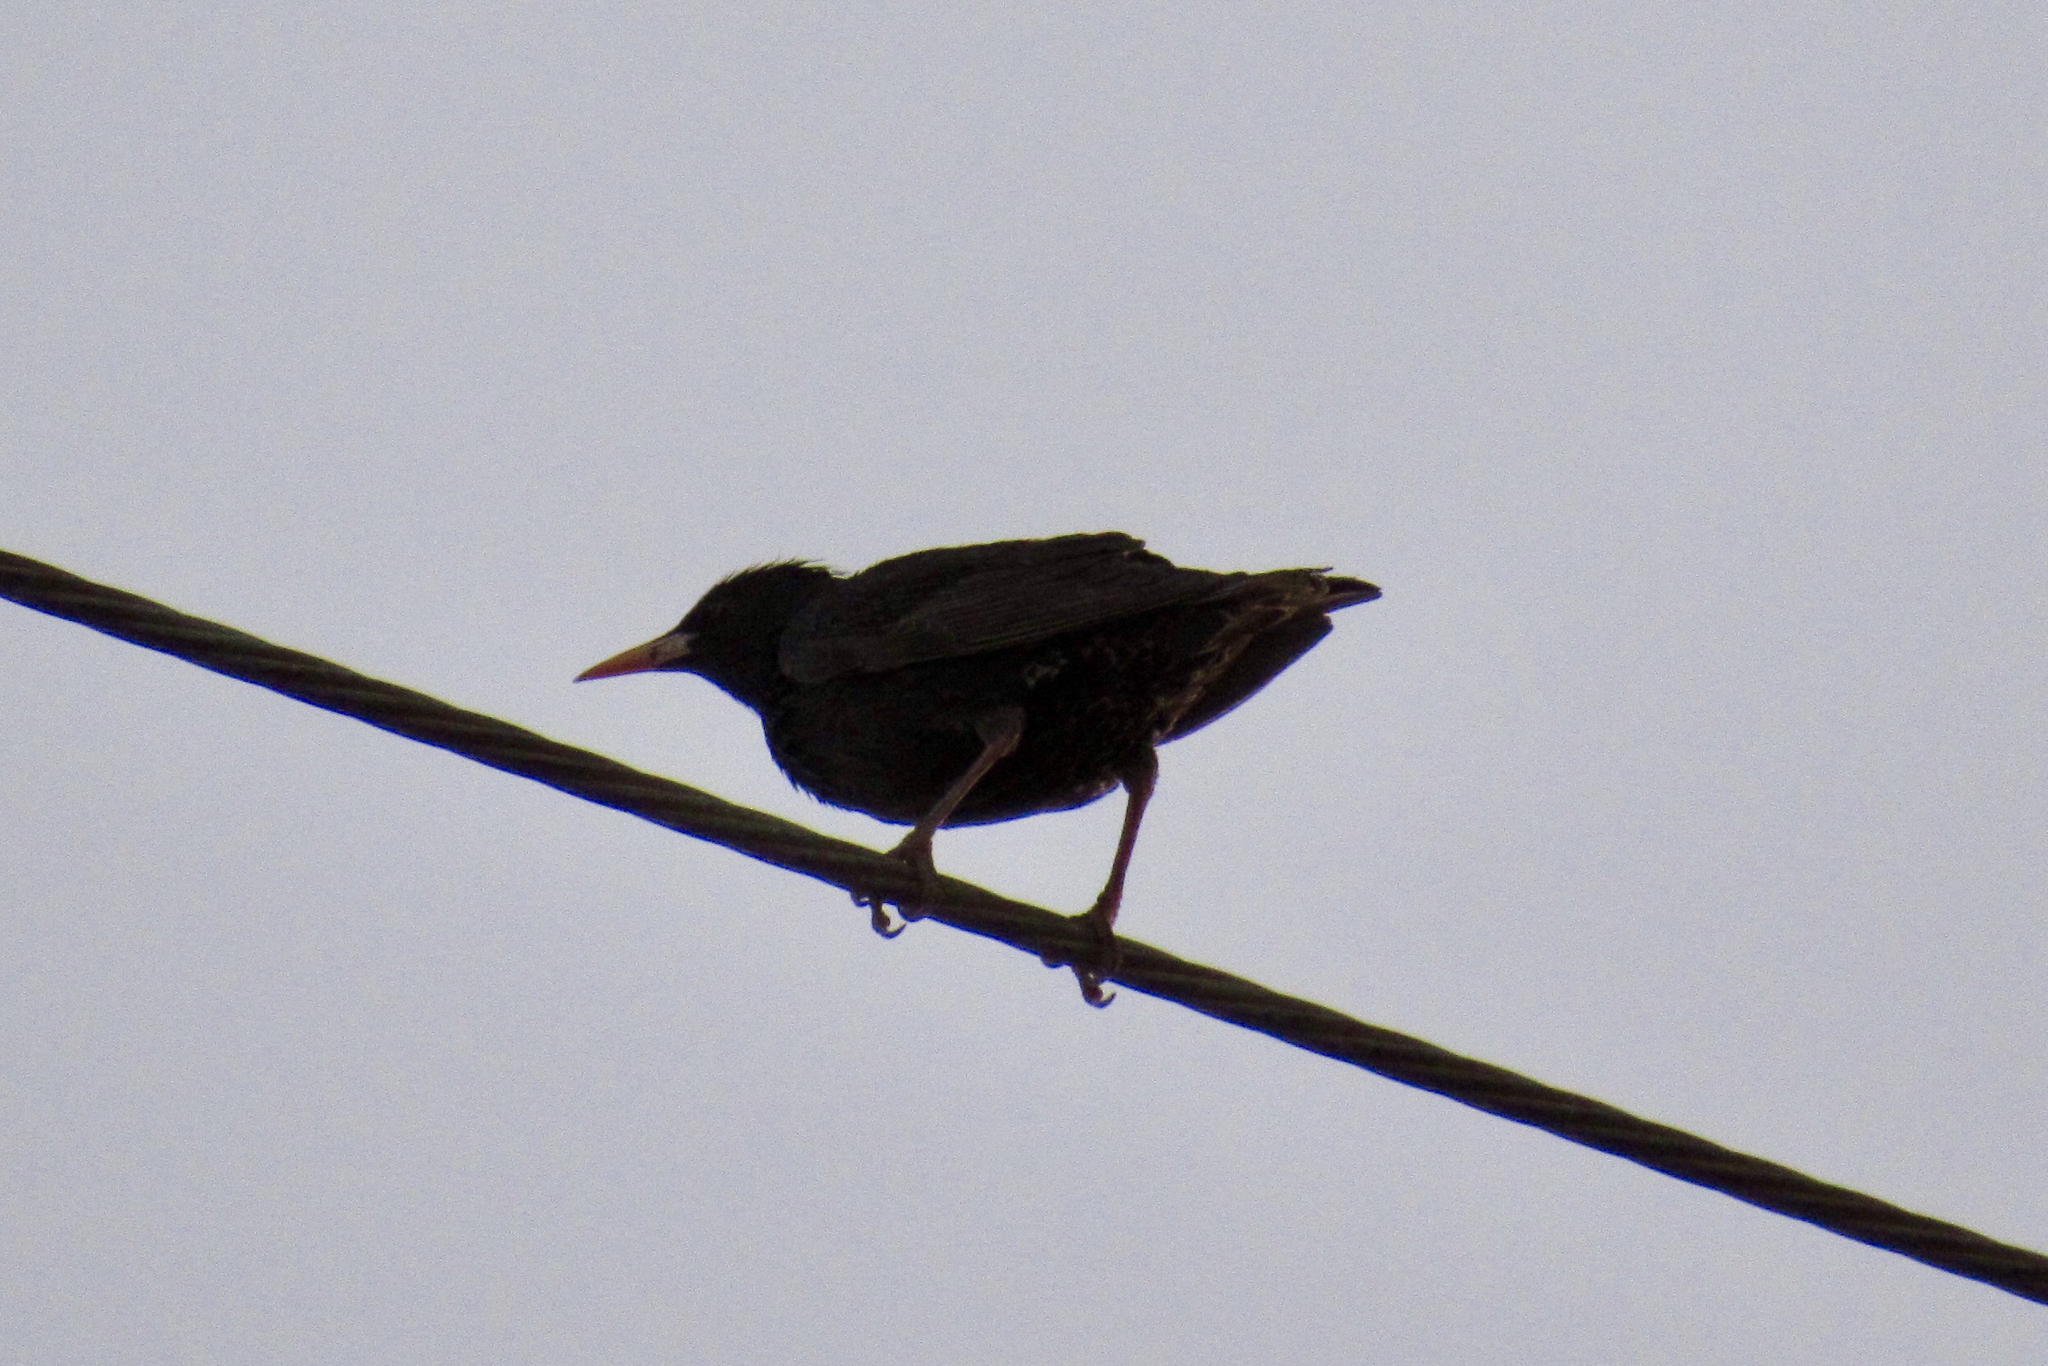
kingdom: Animalia
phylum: Chordata
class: Aves
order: Passeriformes
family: Sturnidae
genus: Sturnus
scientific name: Sturnus vulgaris
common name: Common starling
